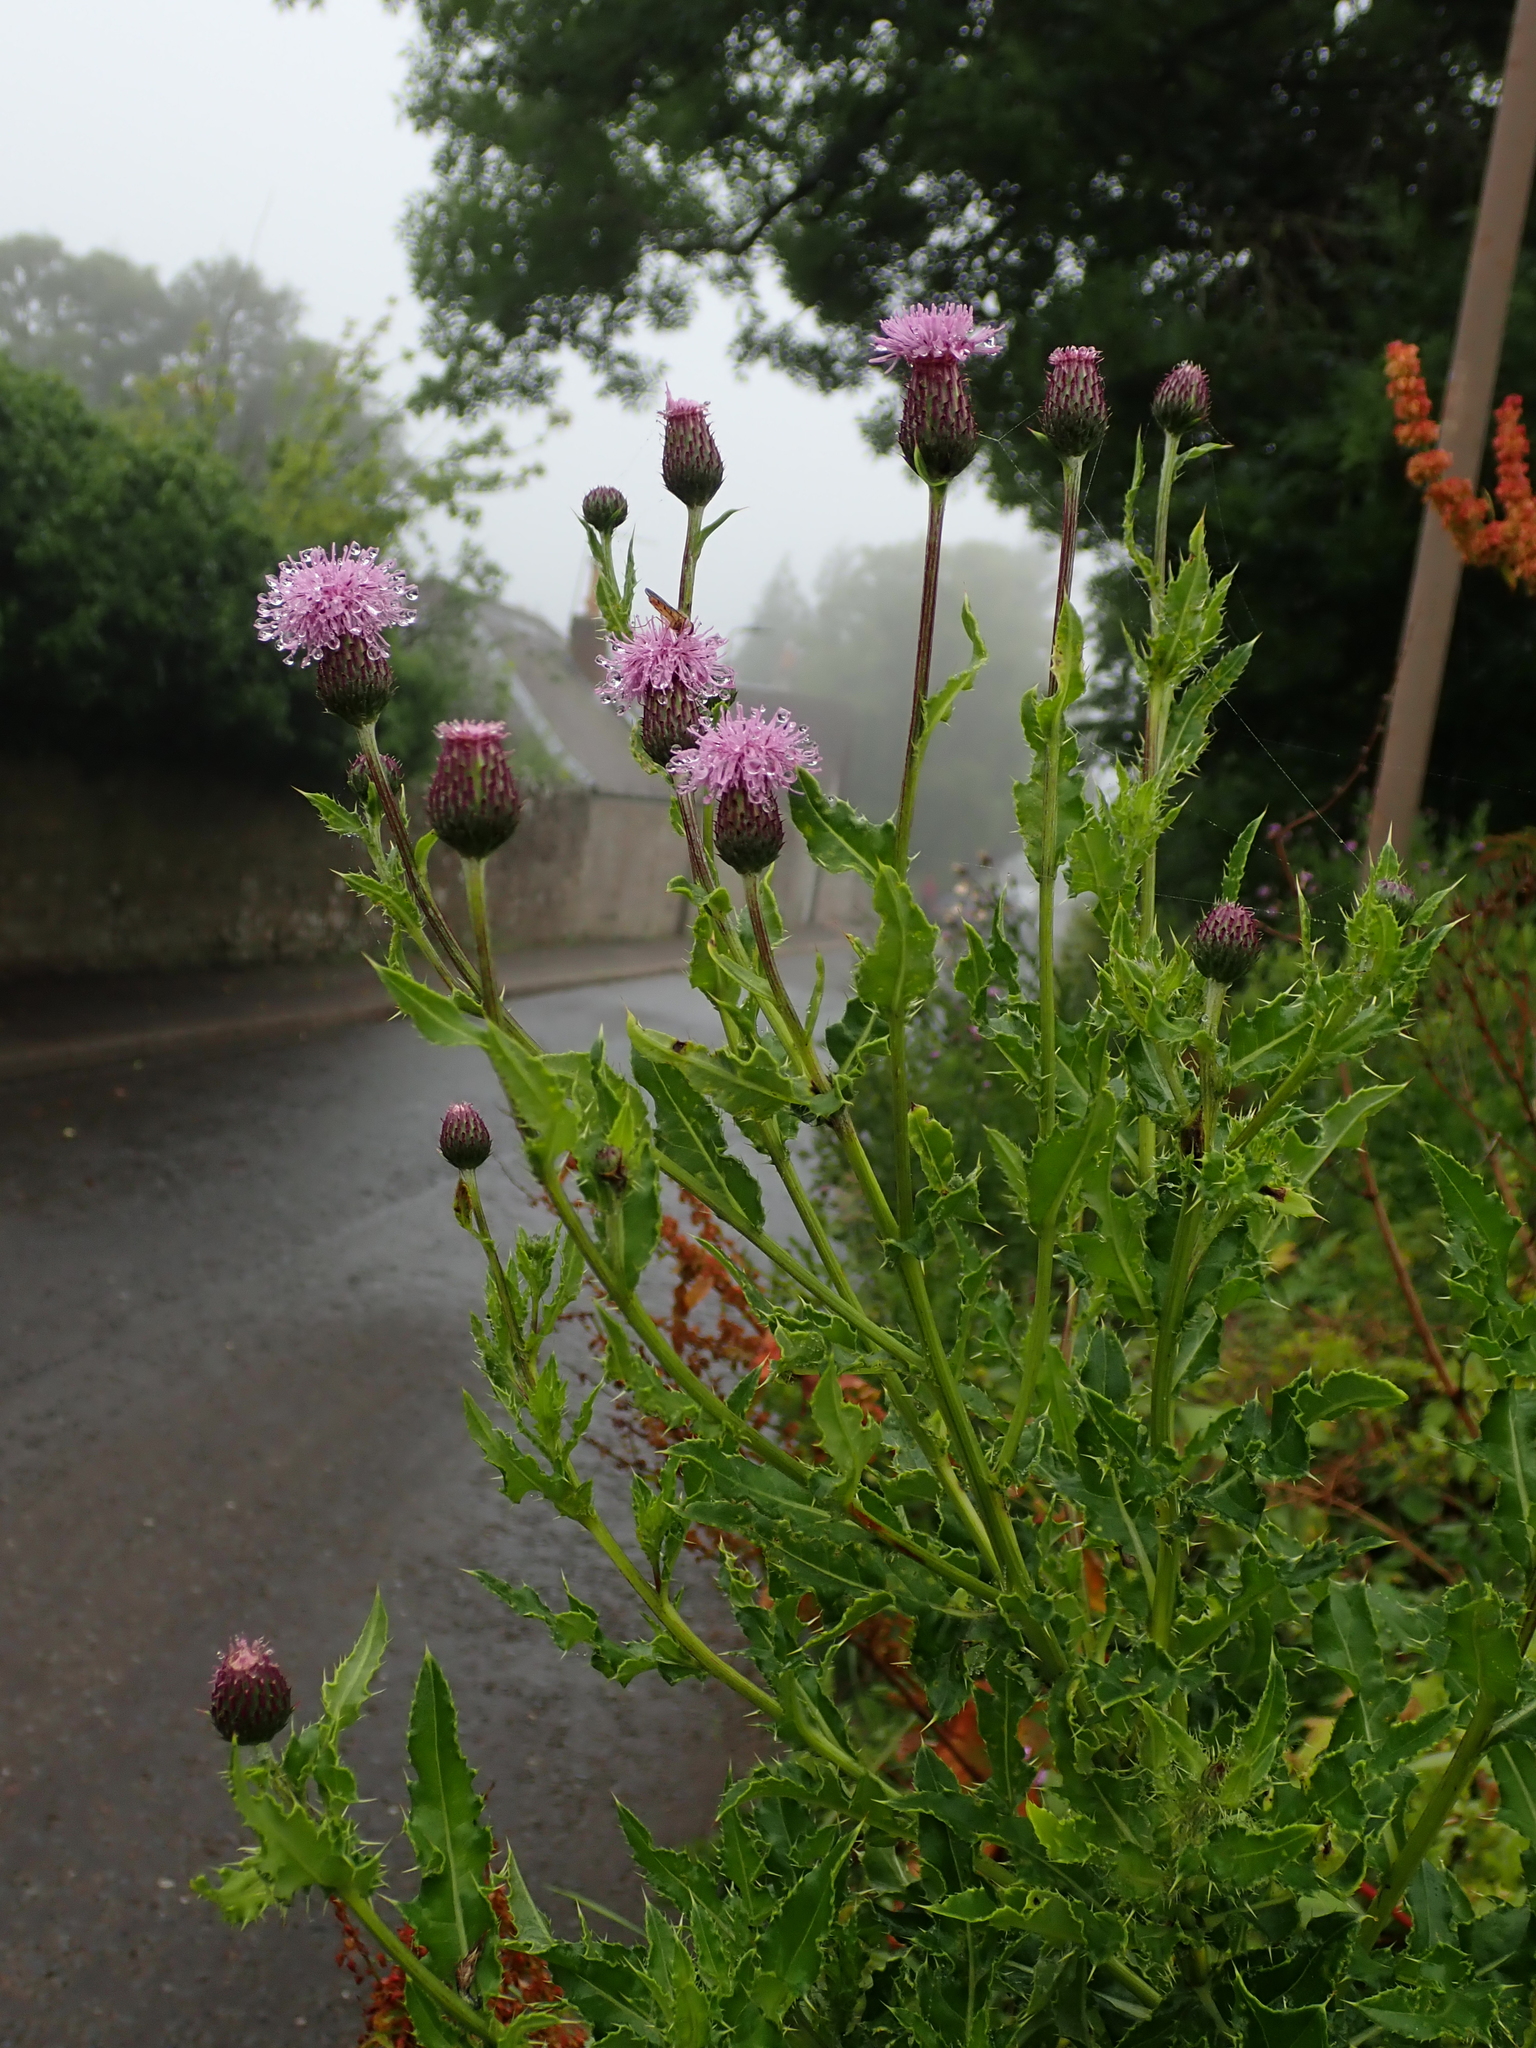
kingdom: Plantae
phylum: Tracheophyta
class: Magnoliopsida
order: Asterales
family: Asteraceae
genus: Cirsium
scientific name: Cirsium arvense
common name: Creeping thistle
